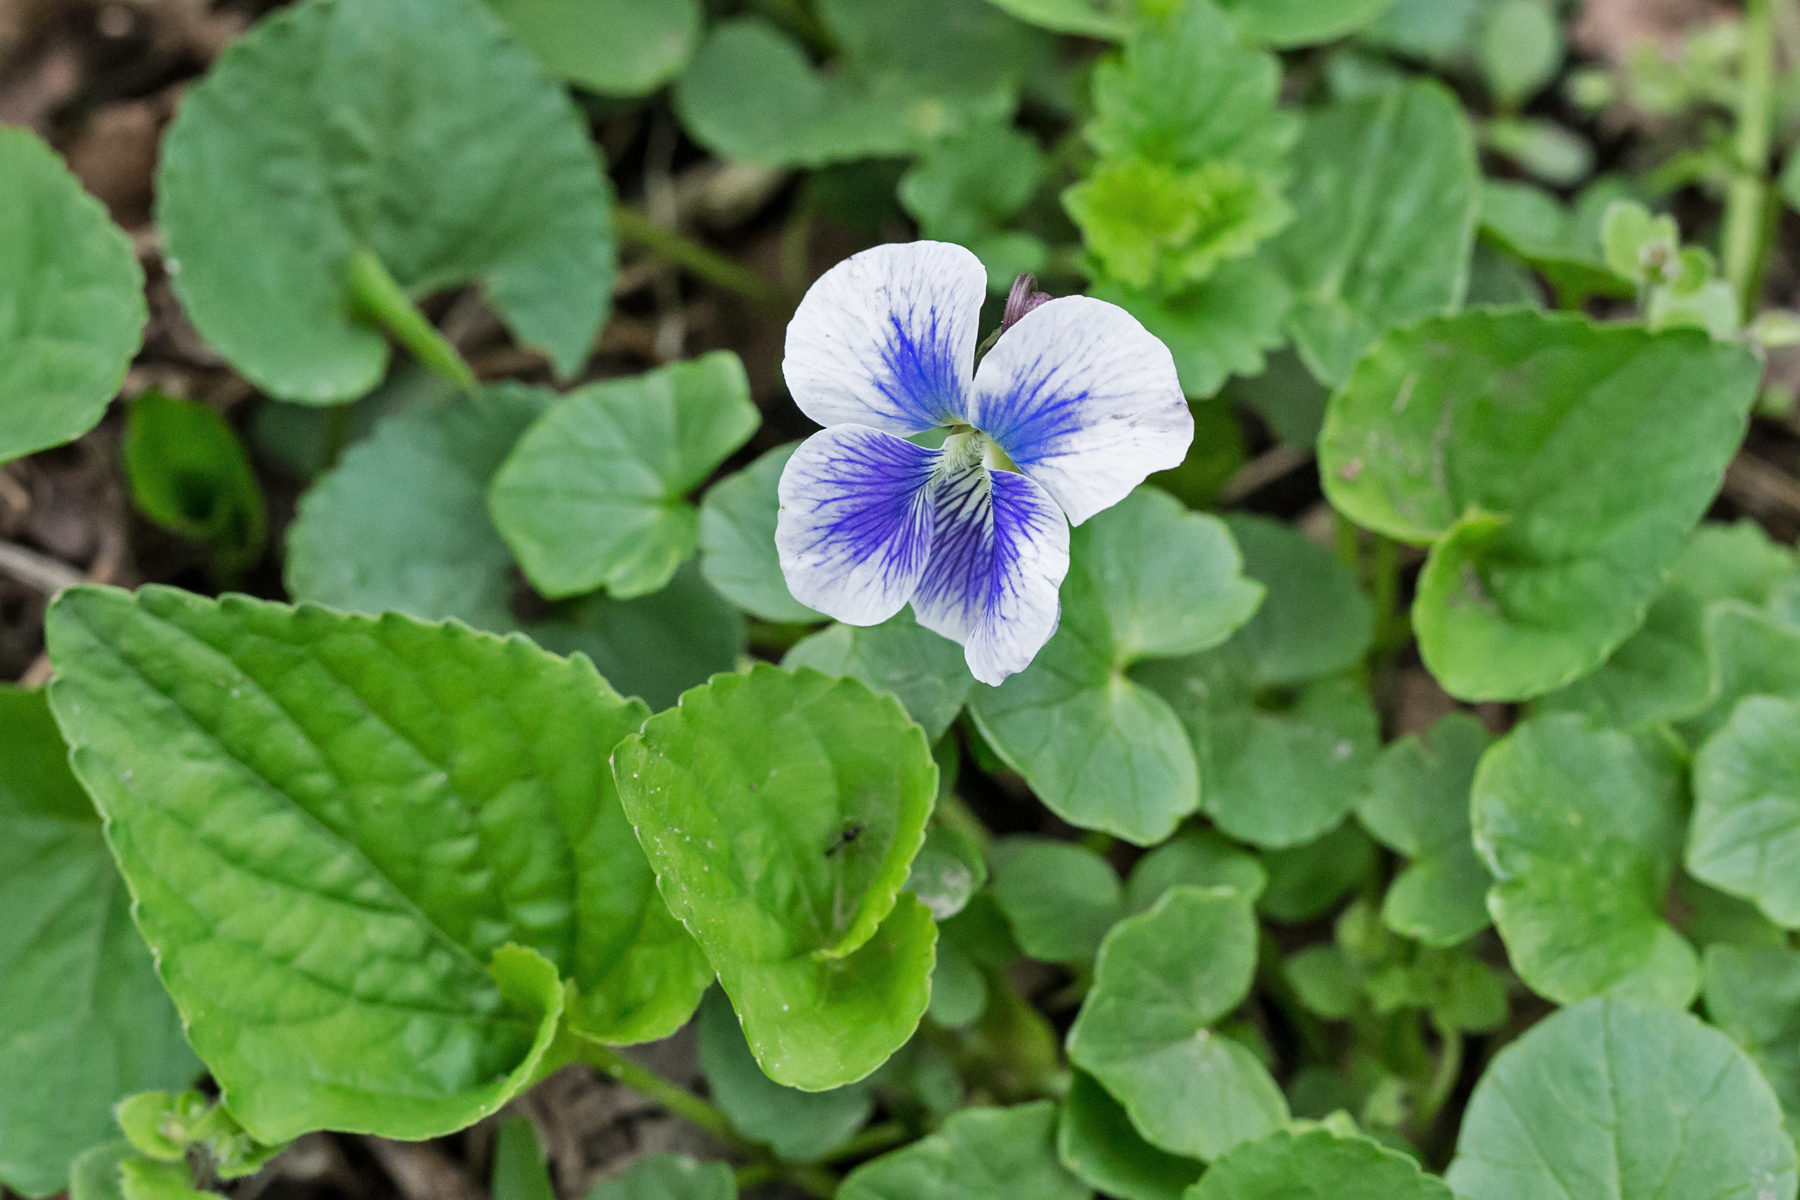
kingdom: Plantae
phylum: Tracheophyta
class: Magnoliopsida
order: Malpighiales
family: Violaceae
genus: Viola
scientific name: Viola sororia
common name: Dooryard violet
